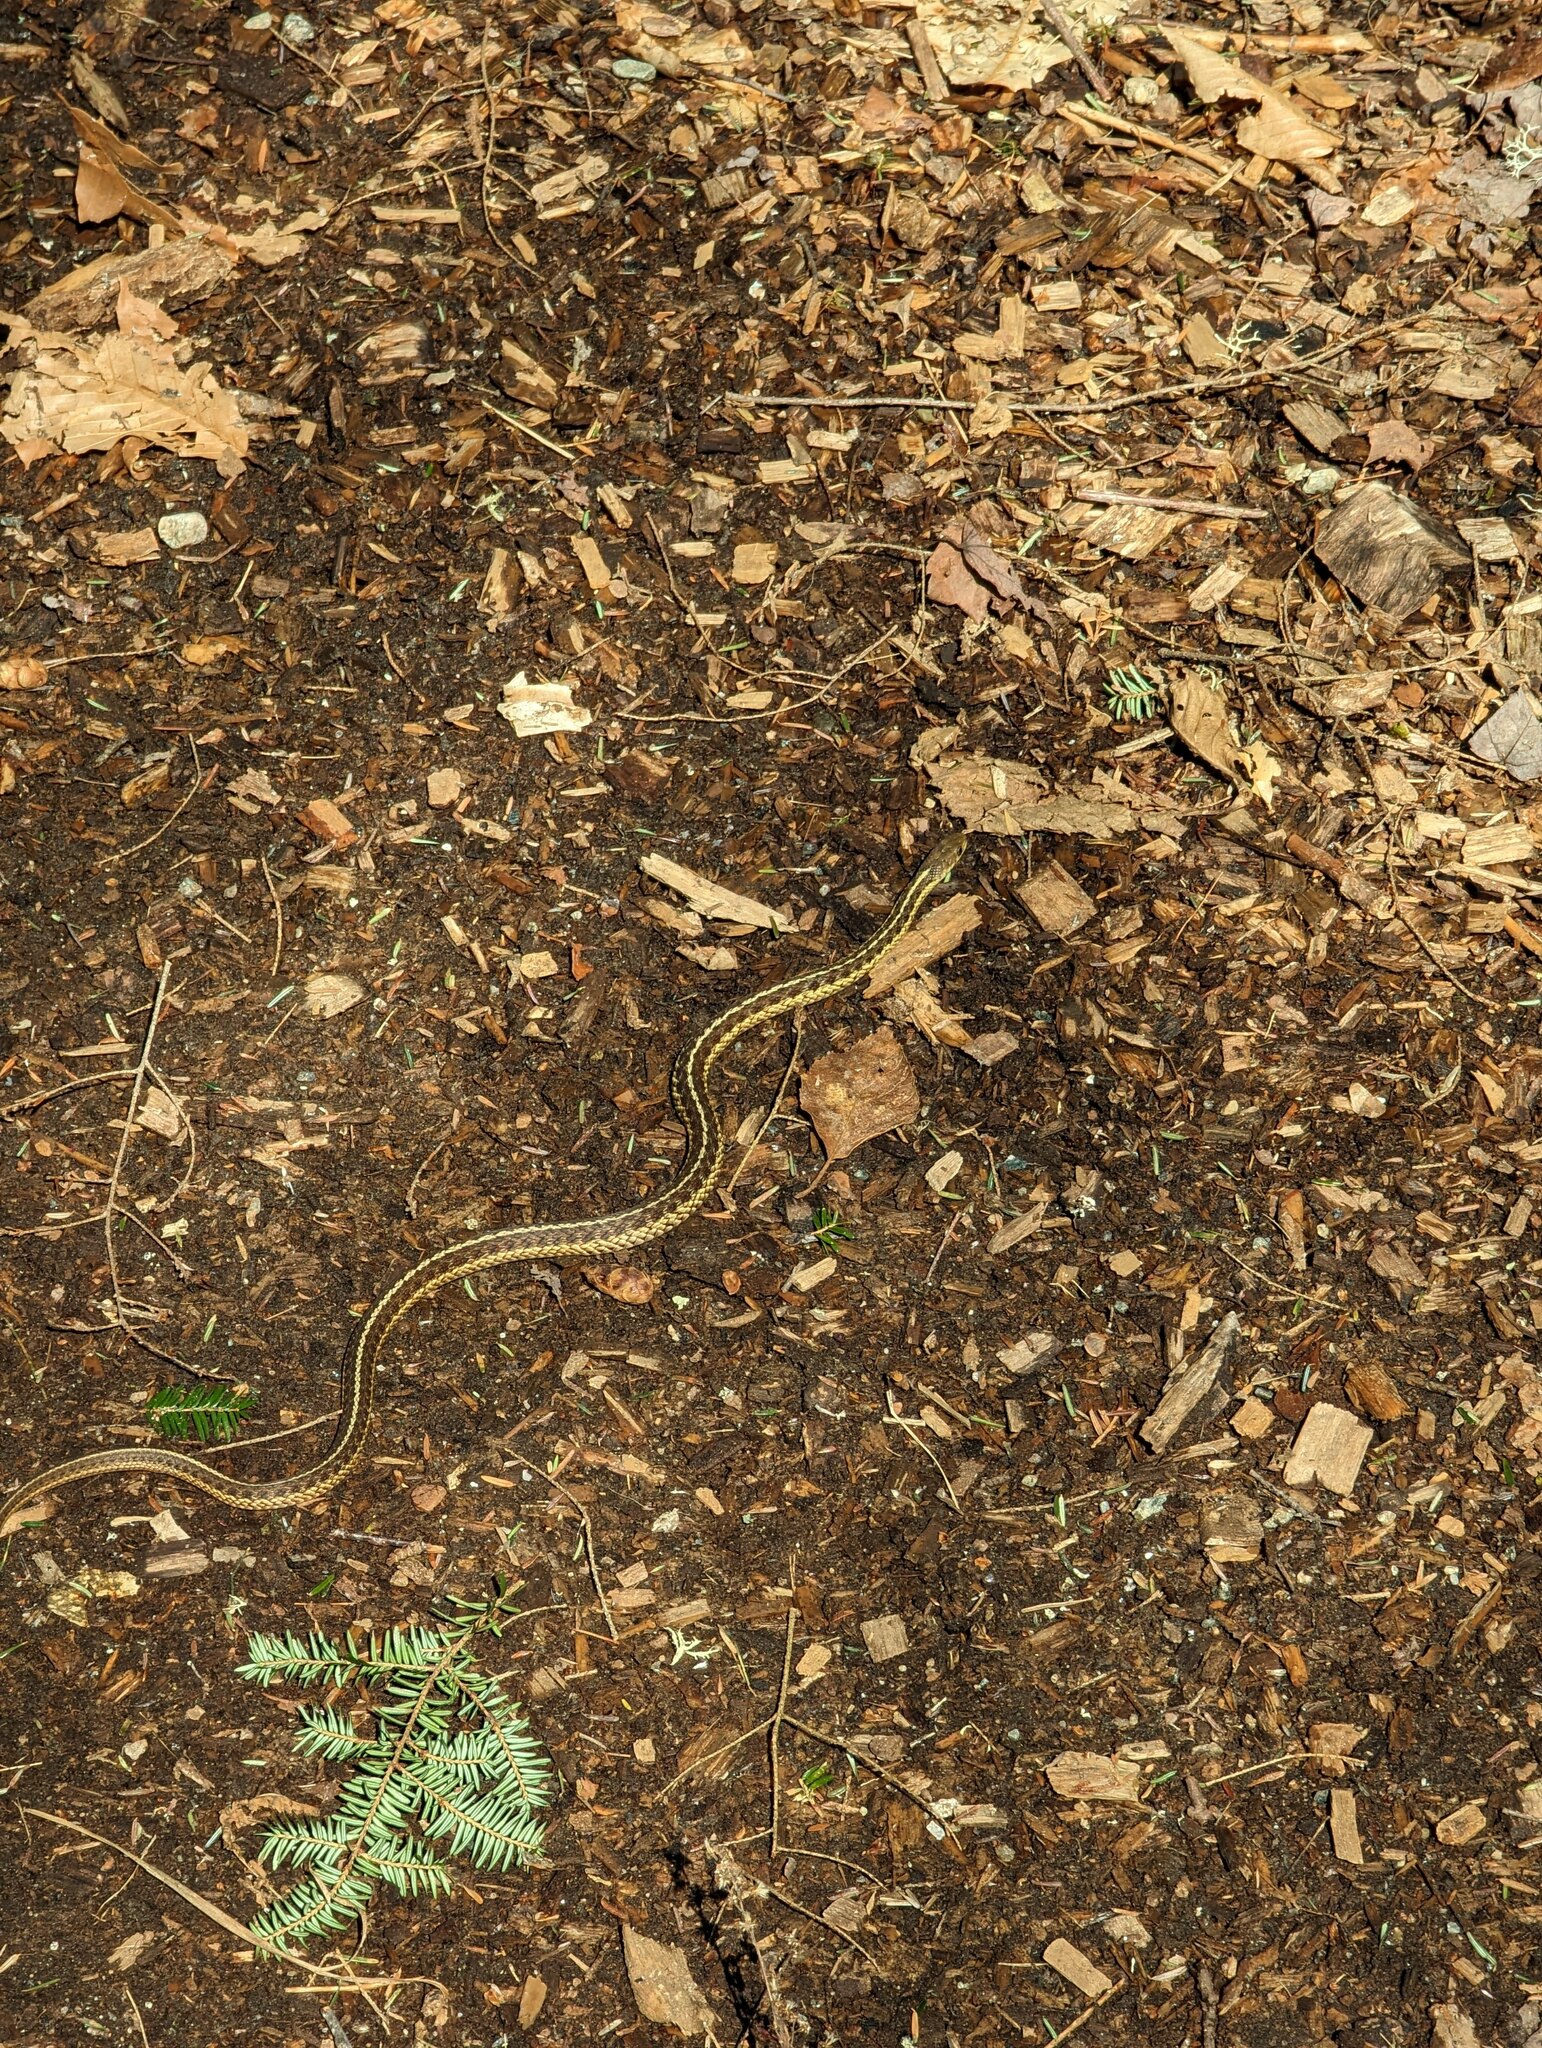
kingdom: Animalia
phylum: Chordata
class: Squamata
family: Colubridae
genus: Thamnophis
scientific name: Thamnophis sirtalis
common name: Common garter snake
